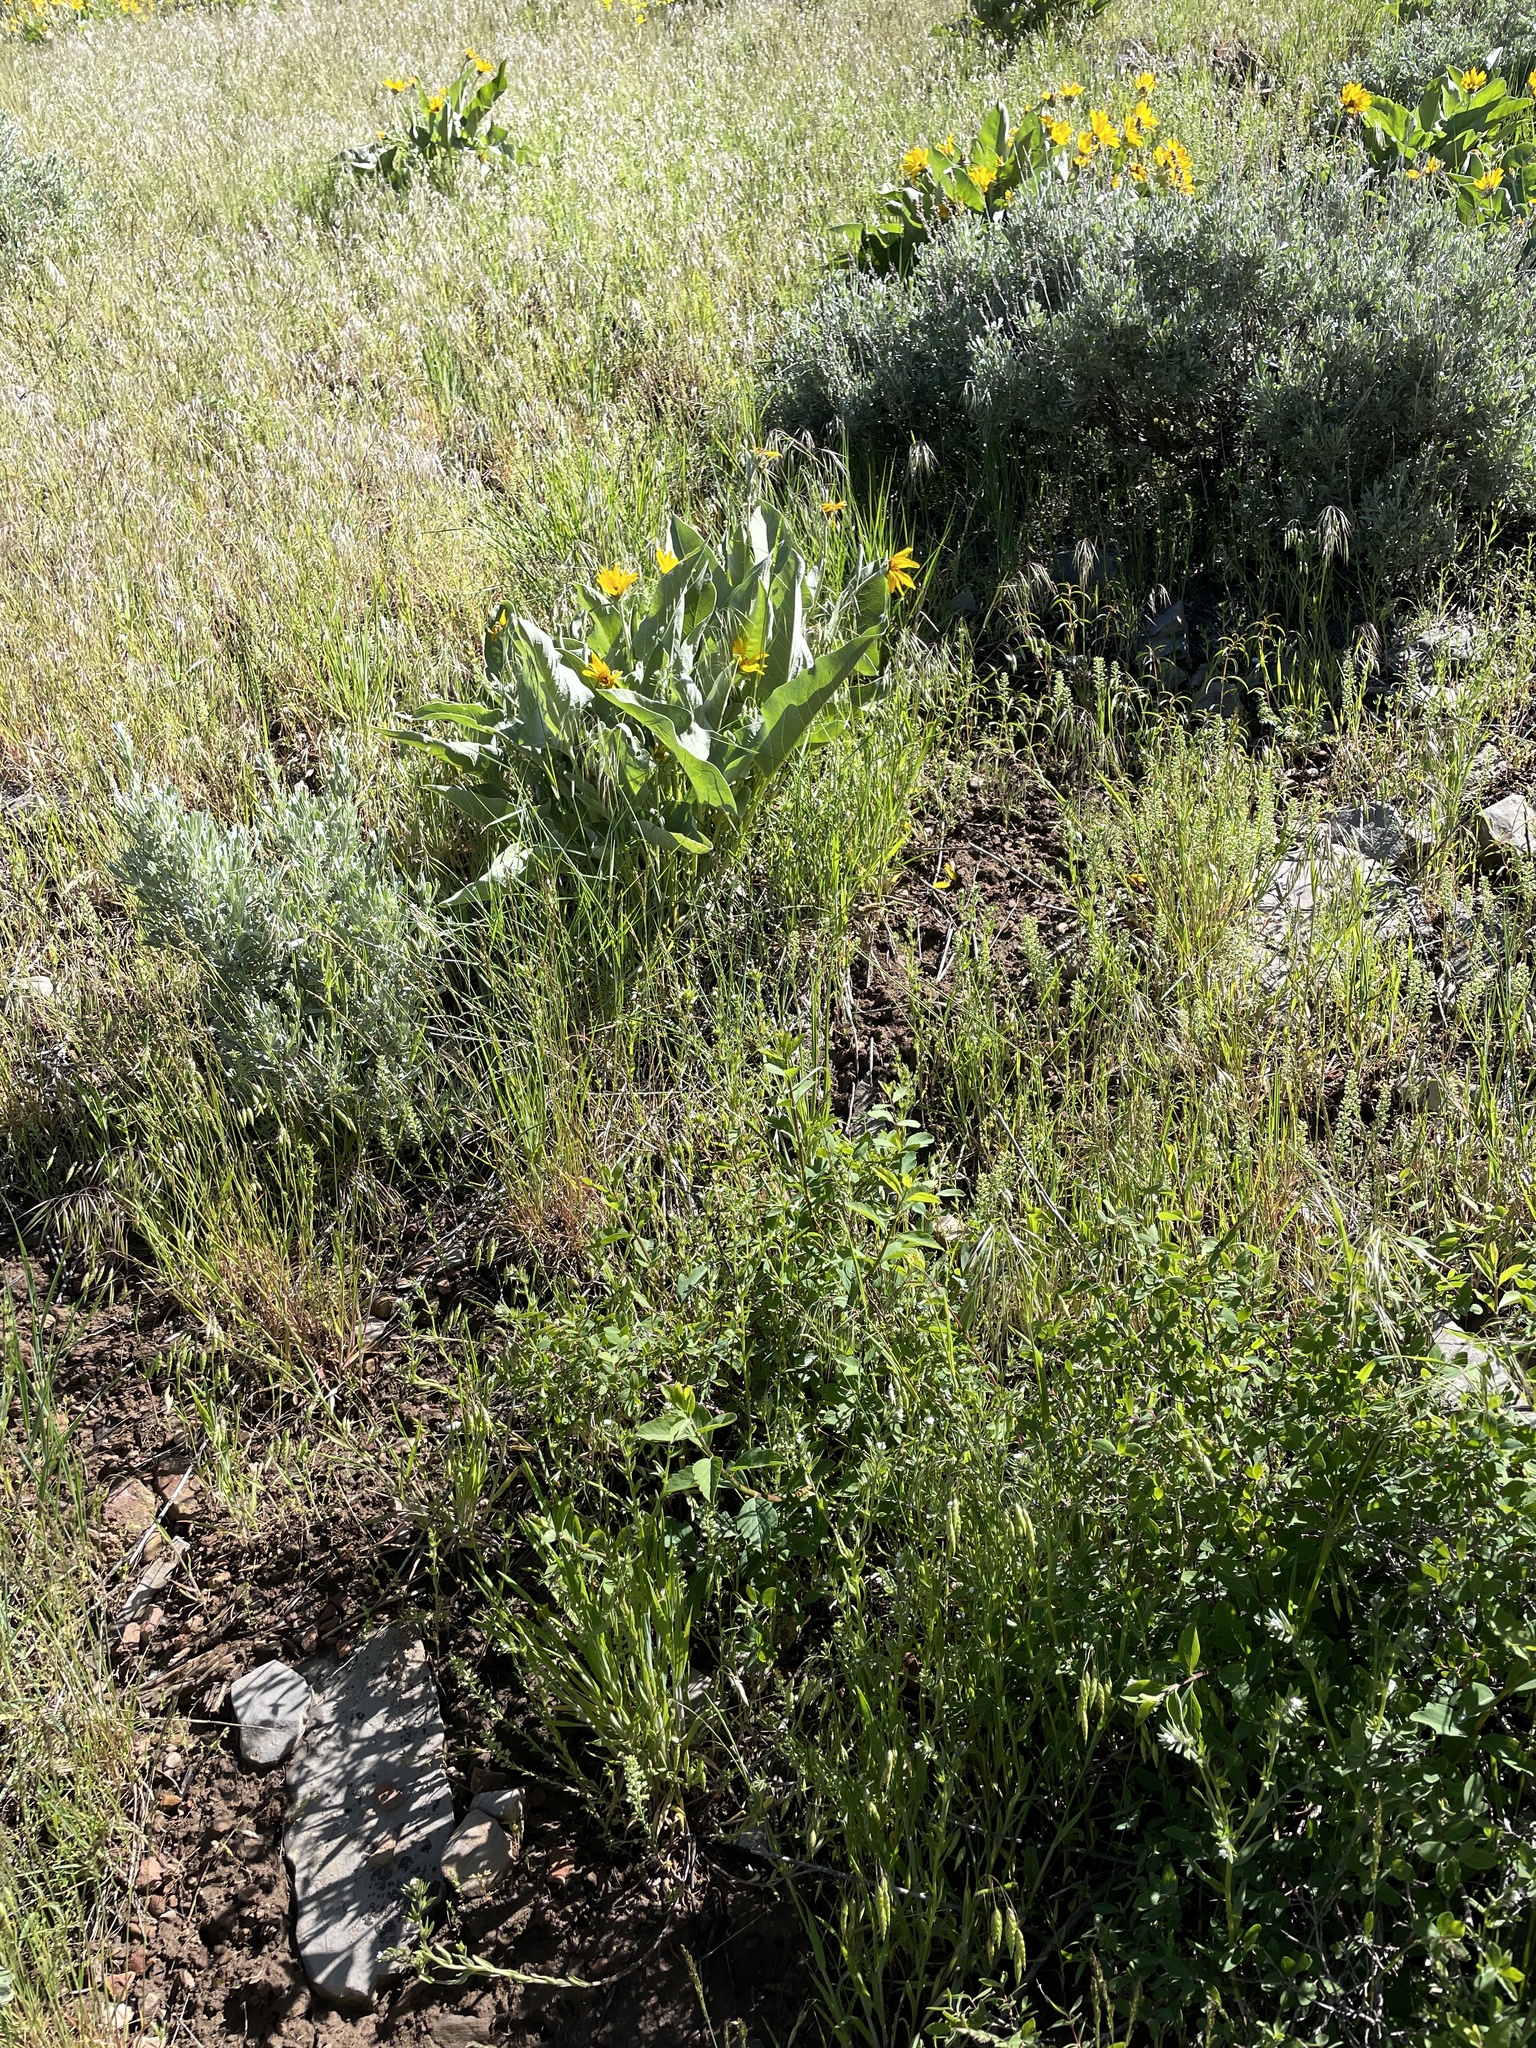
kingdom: Plantae
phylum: Tracheophyta
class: Liliopsida
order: Poales
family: Poaceae
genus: Bromus
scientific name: Bromus briziformis
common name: Rattlesnake brome
